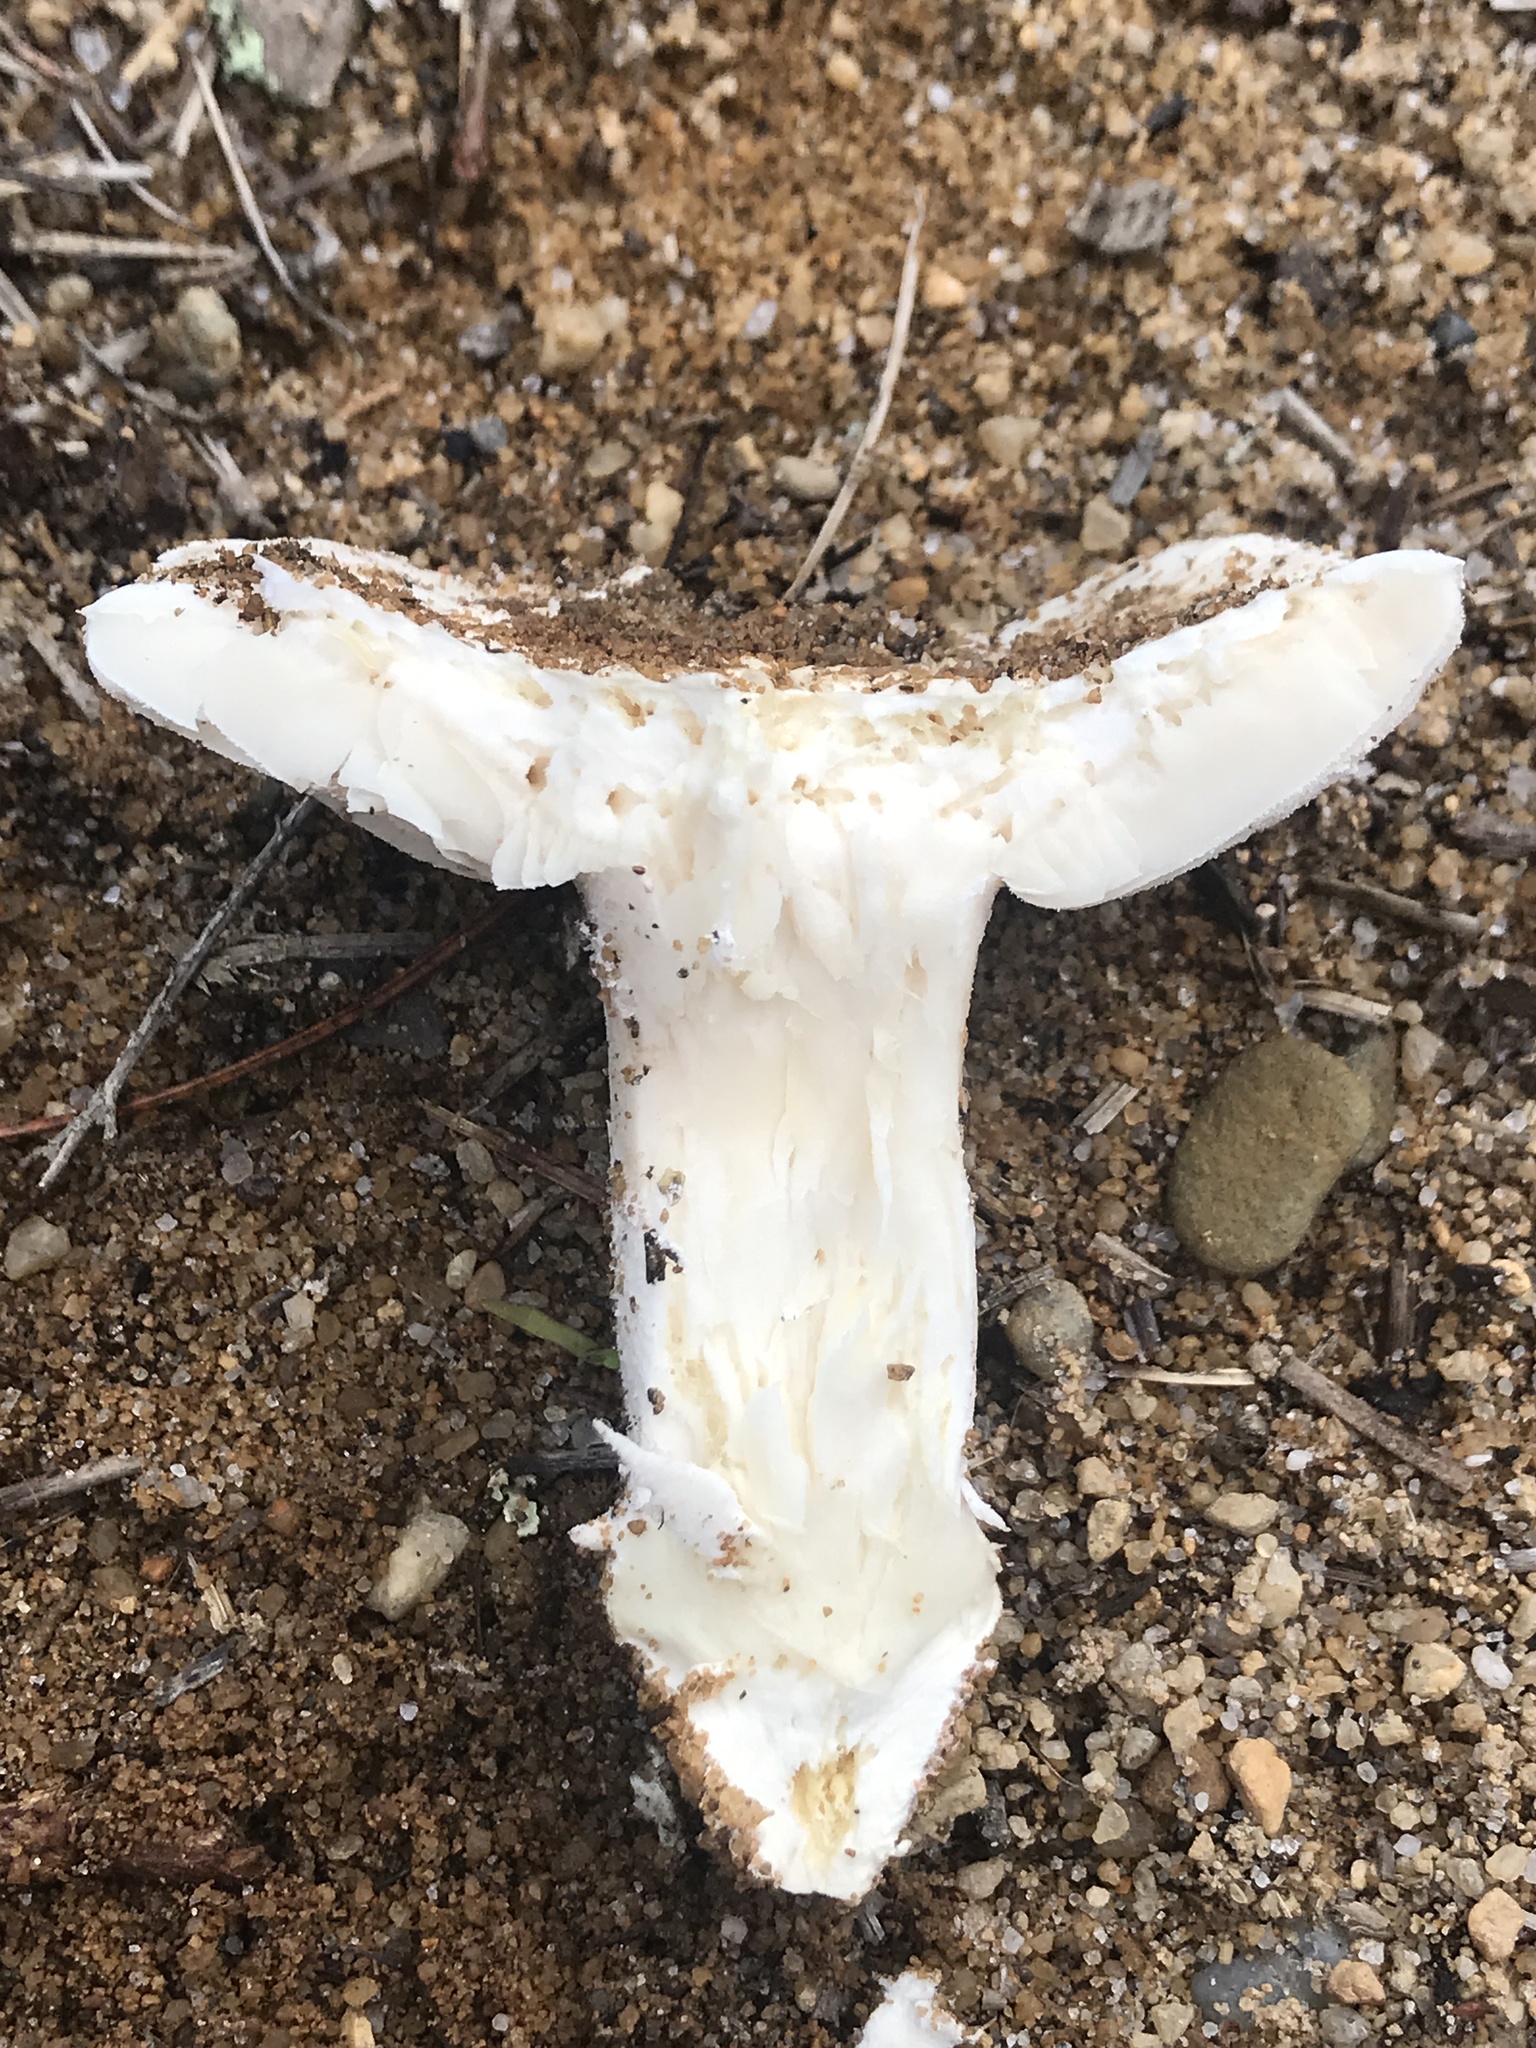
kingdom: Fungi
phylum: Basidiomycota
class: Agaricomycetes
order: Agaricales
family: Amanitaceae
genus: Amanita
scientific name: Amanita limbatula
